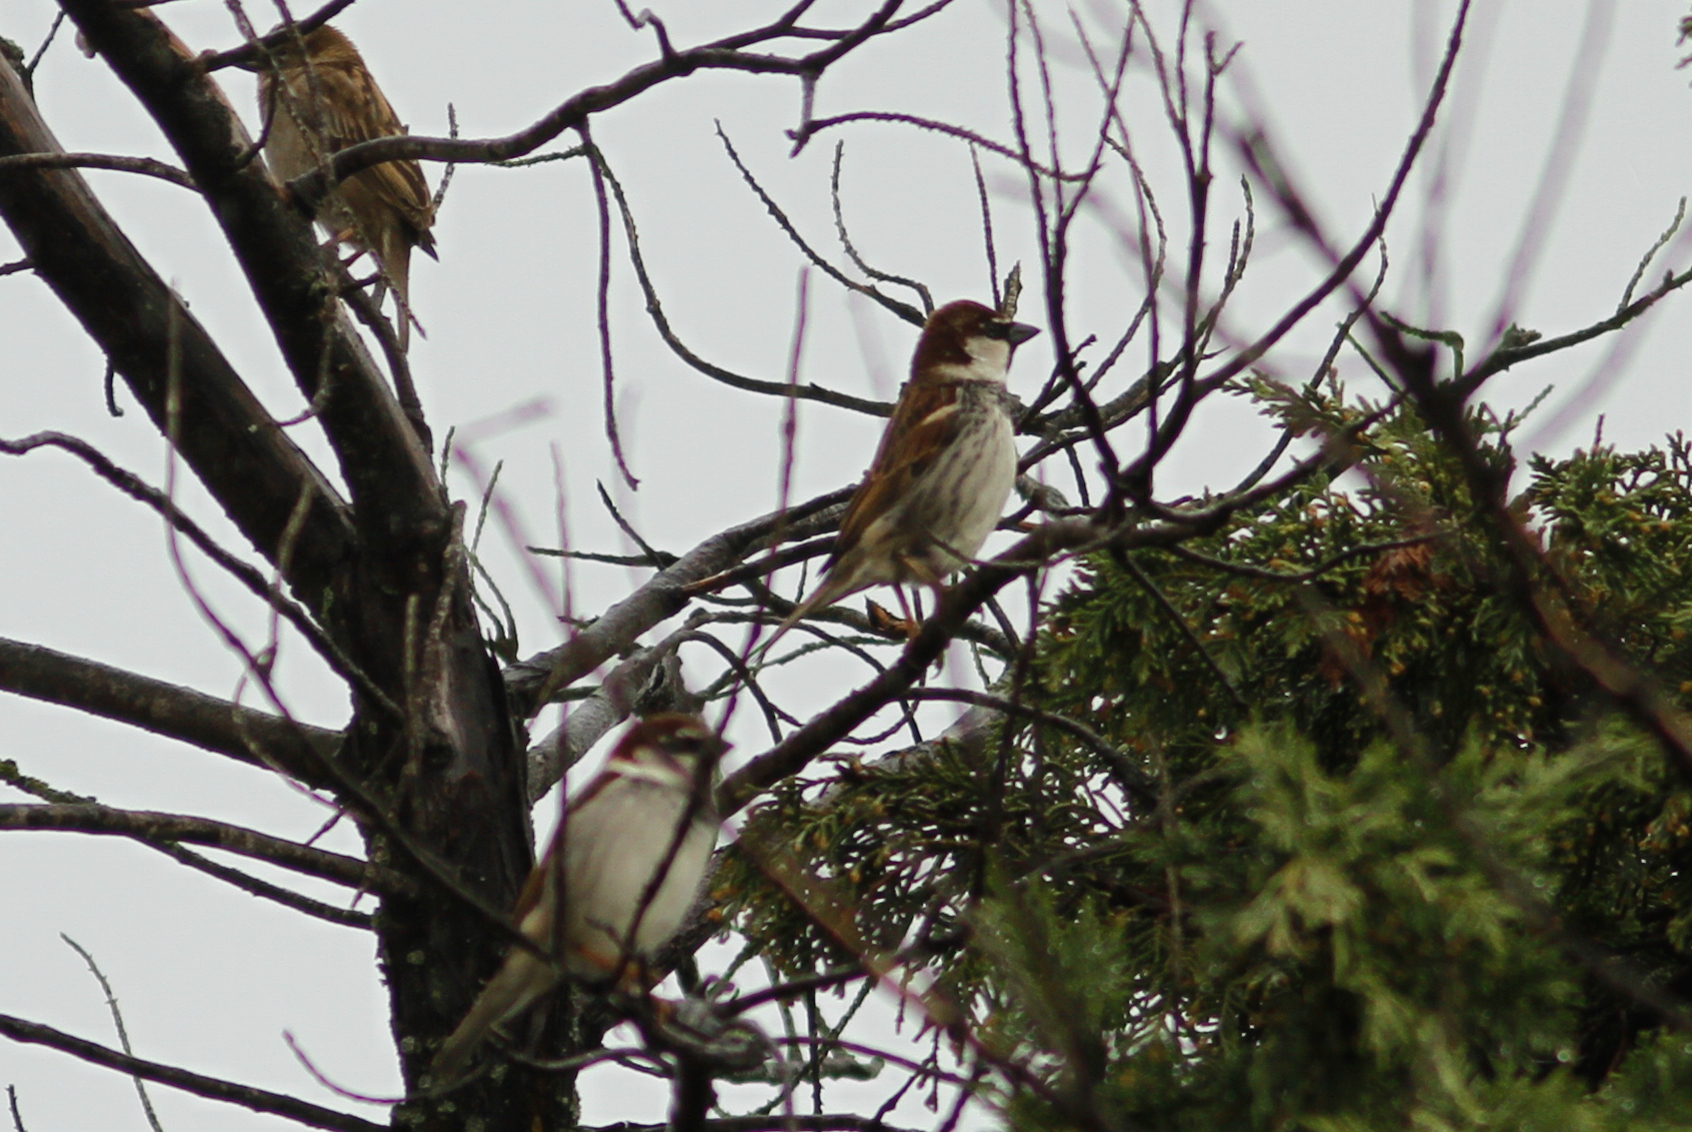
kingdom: Animalia
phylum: Chordata
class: Aves
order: Passeriformes
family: Passeridae
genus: Passer
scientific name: Passer hispaniolensis
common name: Spanish sparrow
